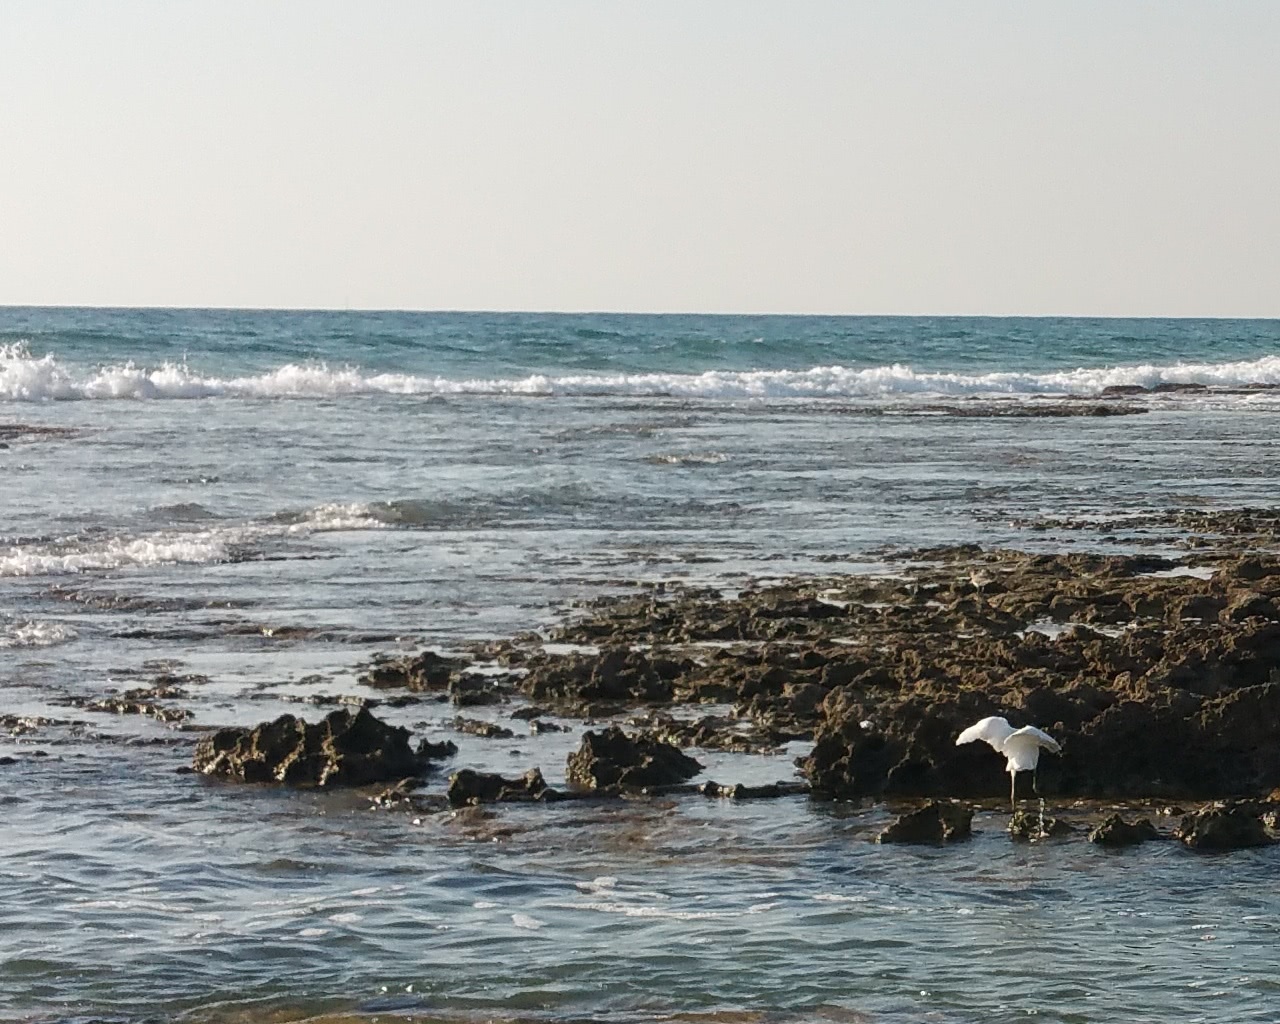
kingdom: Animalia
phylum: Chordata
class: Aves
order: Pelecaniformes
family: Ardeidae
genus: Egretta
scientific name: Egretta garzetta
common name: Little egret
